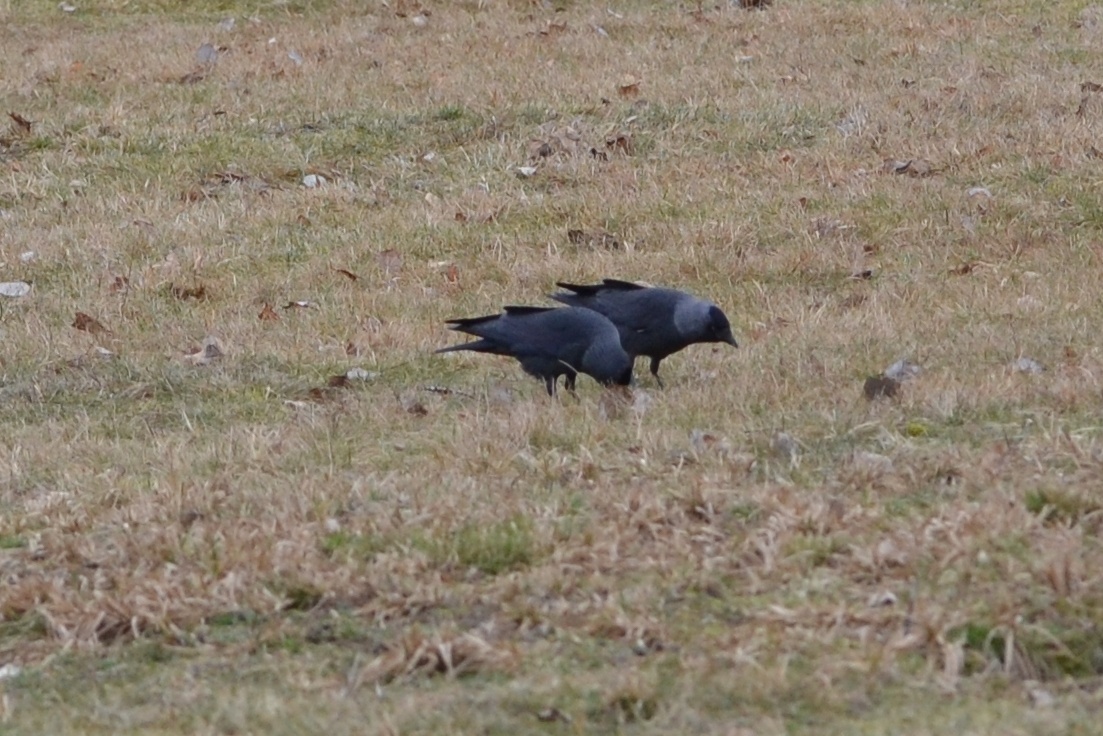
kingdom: Animalia
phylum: Chordata
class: Aves
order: Passeriformes
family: Corvidae
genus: Coloeus
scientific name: Coloeus monedula
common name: Western jackdaw
